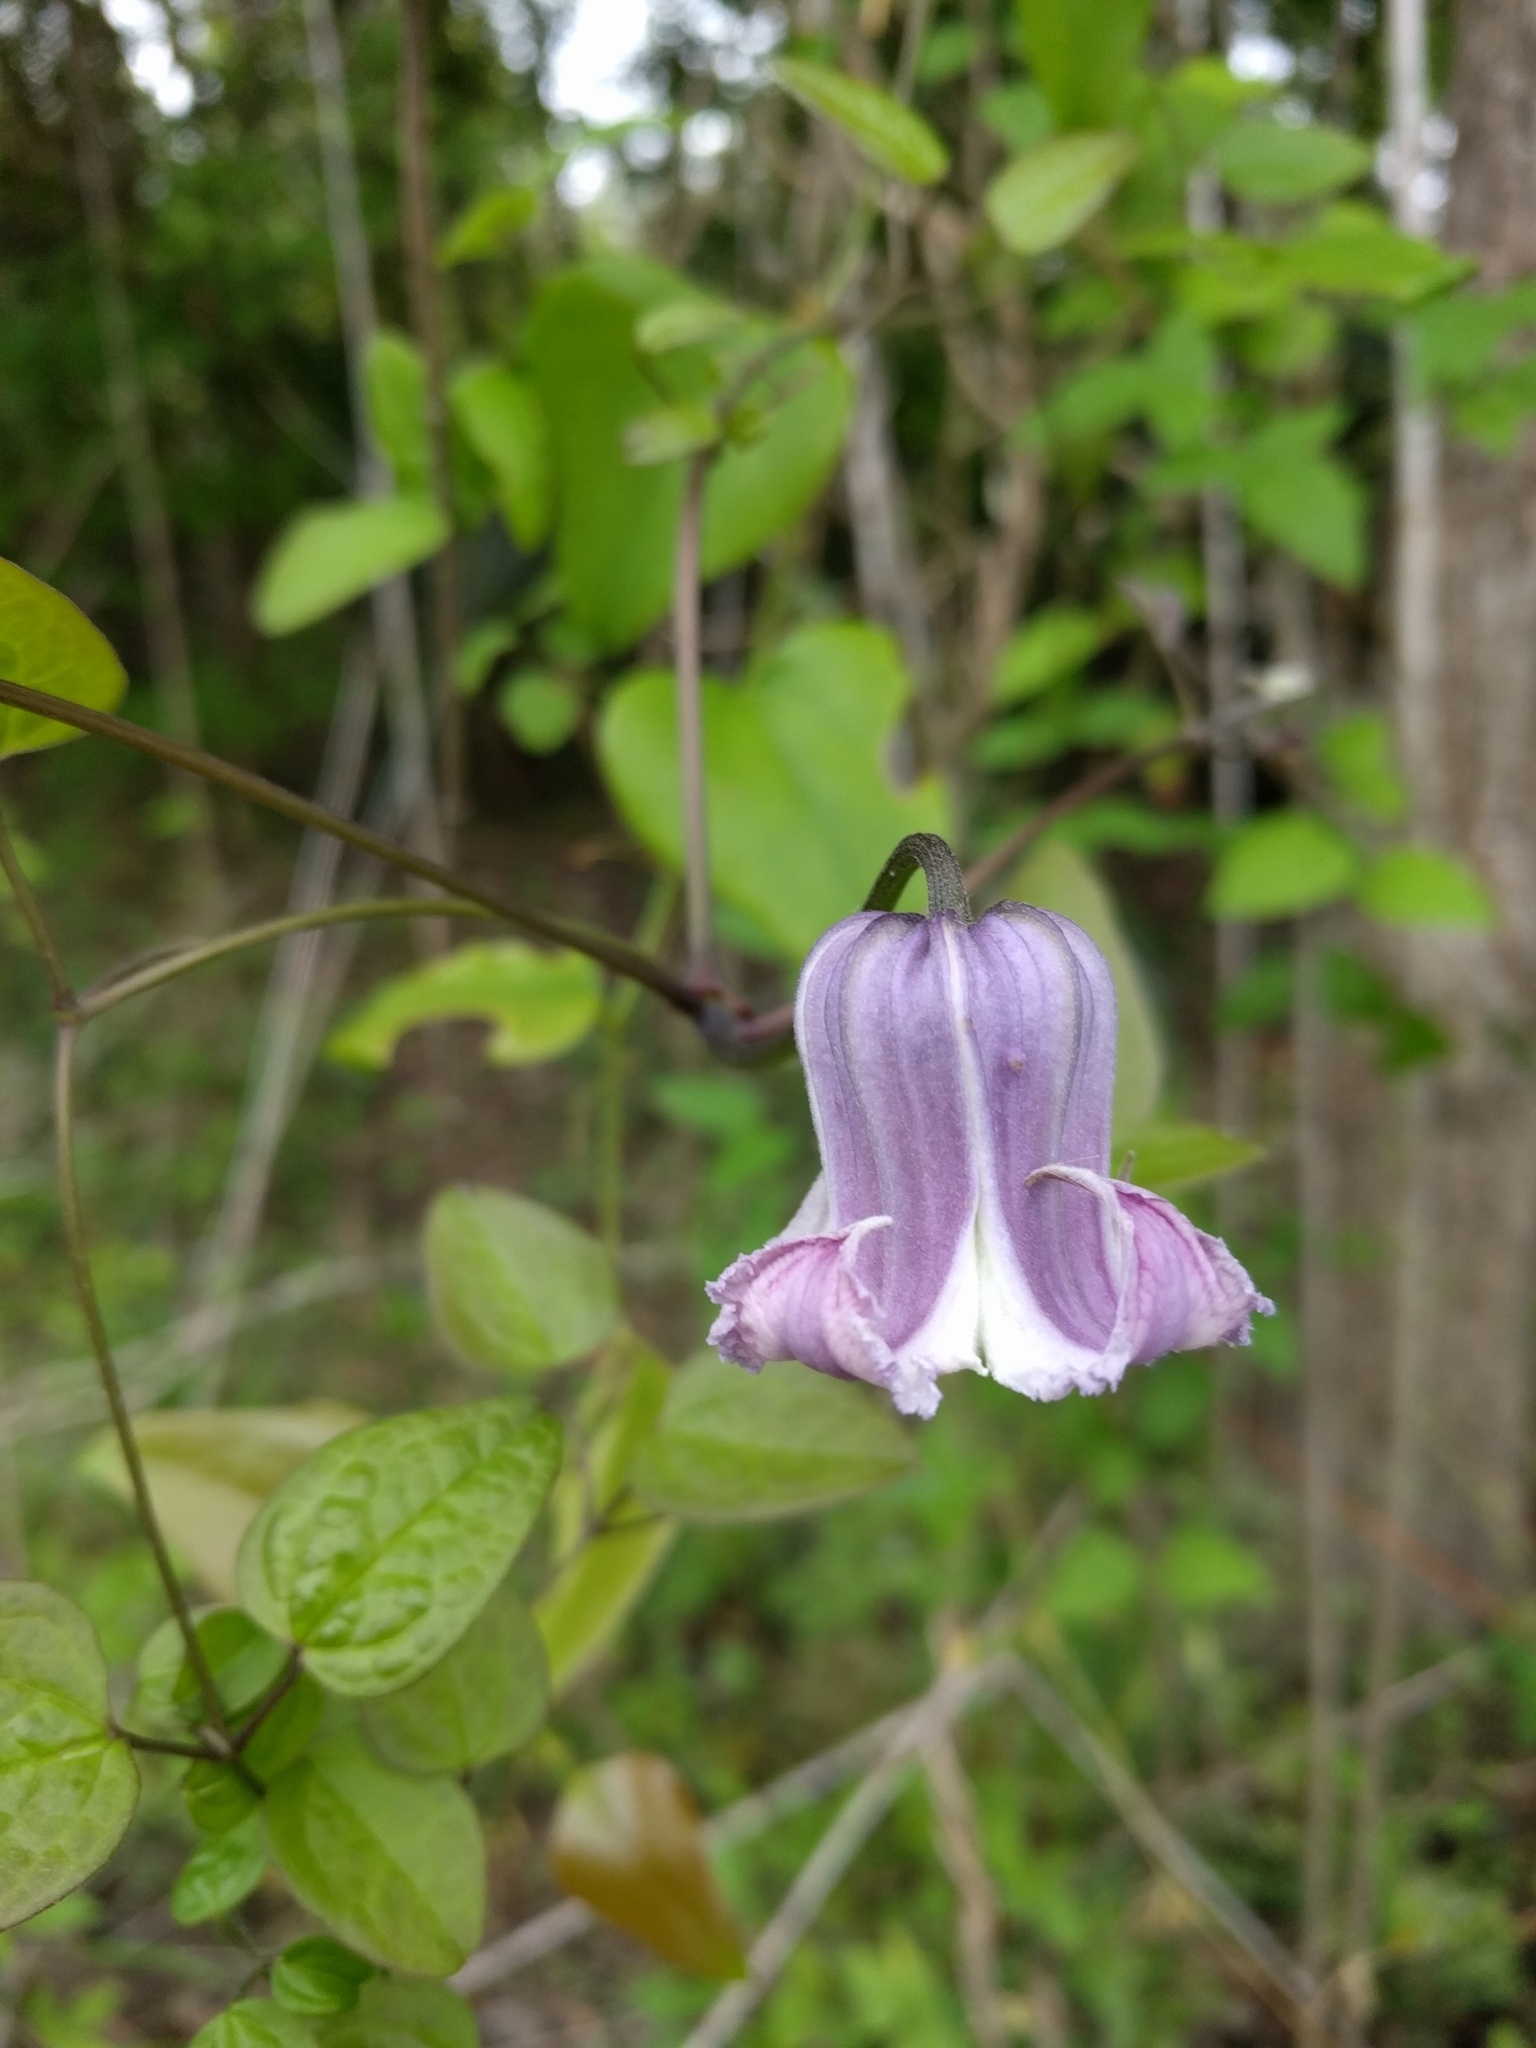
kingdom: Plantae
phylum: Tracheophyta
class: Magnoliopsida
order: Ranunculales
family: Ranunculaceae
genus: Clematis
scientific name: Clematis crispa
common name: Curly clematis
